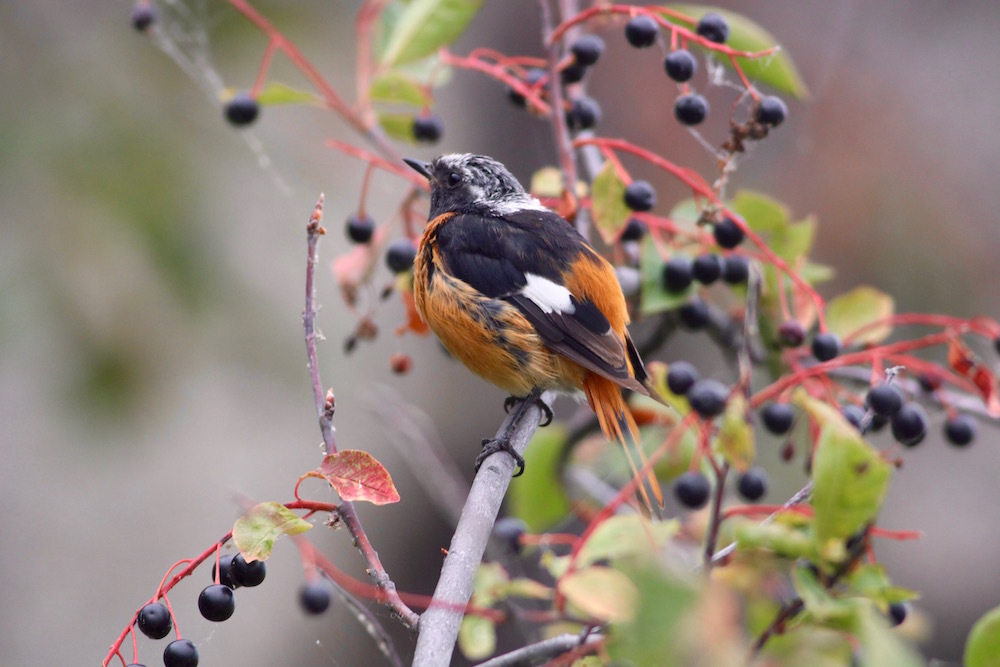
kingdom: Animalia
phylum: Chordata
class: Aves
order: Passeriformes
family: Muscicapidae
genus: Phoenicurus
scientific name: Phoenicurus auroreus
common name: Daurian redstart
